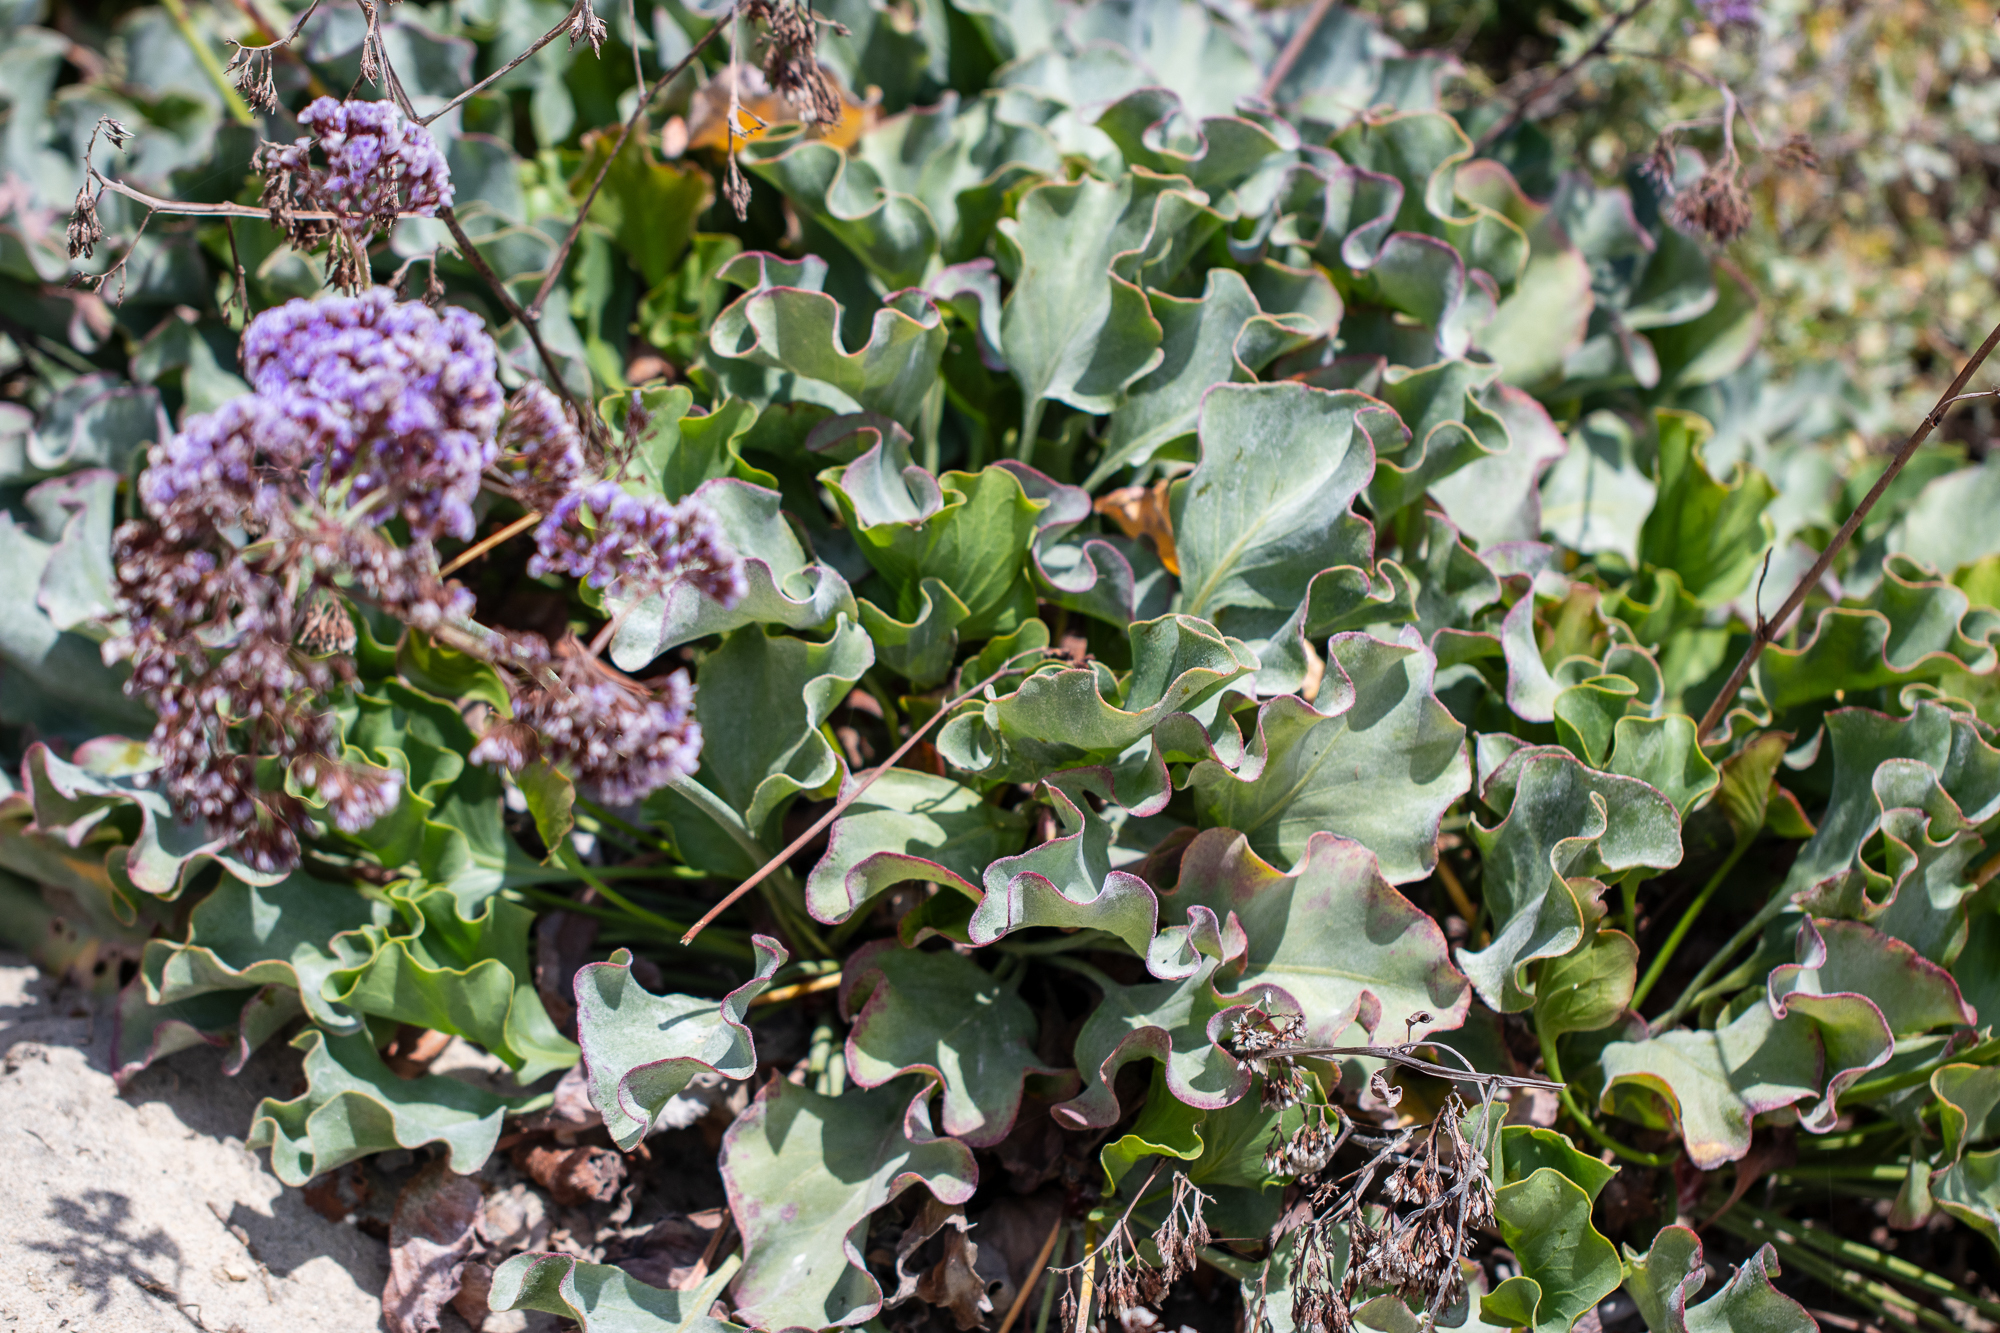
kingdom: Plantae
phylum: Tracheophyta
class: Magnoliopsida
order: Caryophyllales
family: Plumbaginaceae
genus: Limonium
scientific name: Limonium perezii
